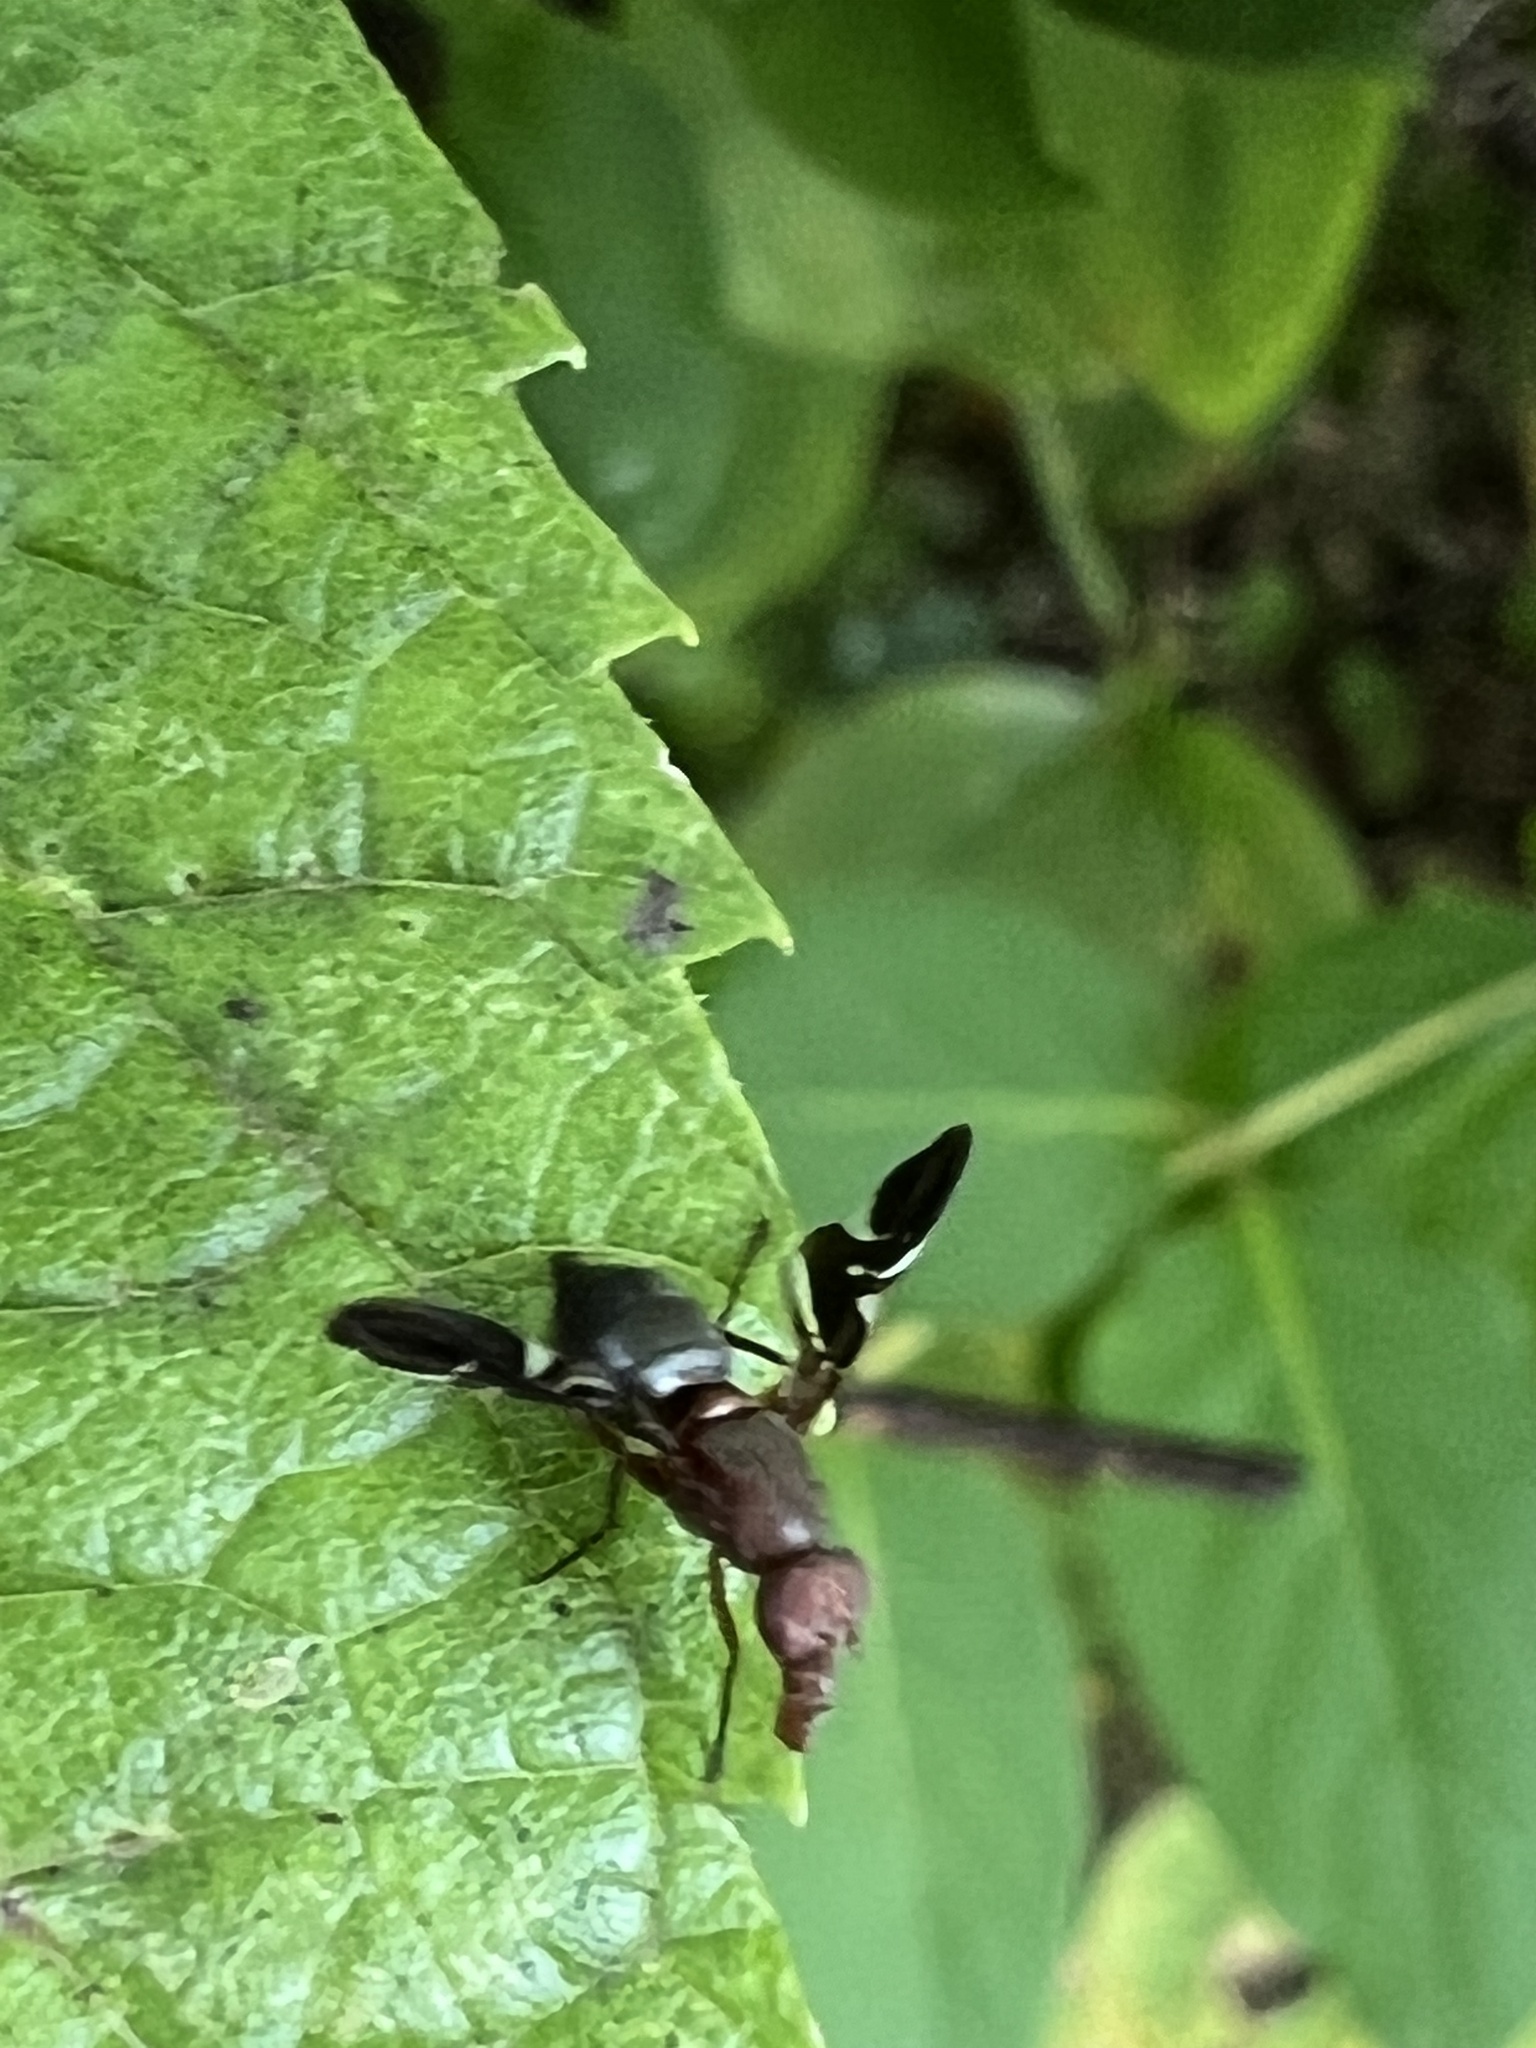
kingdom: Animalia
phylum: Arthropoda
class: Insecta
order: Diptera
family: Ulidiidae
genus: Delphinia
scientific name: Delphinia picta
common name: Common picture-winged fly
